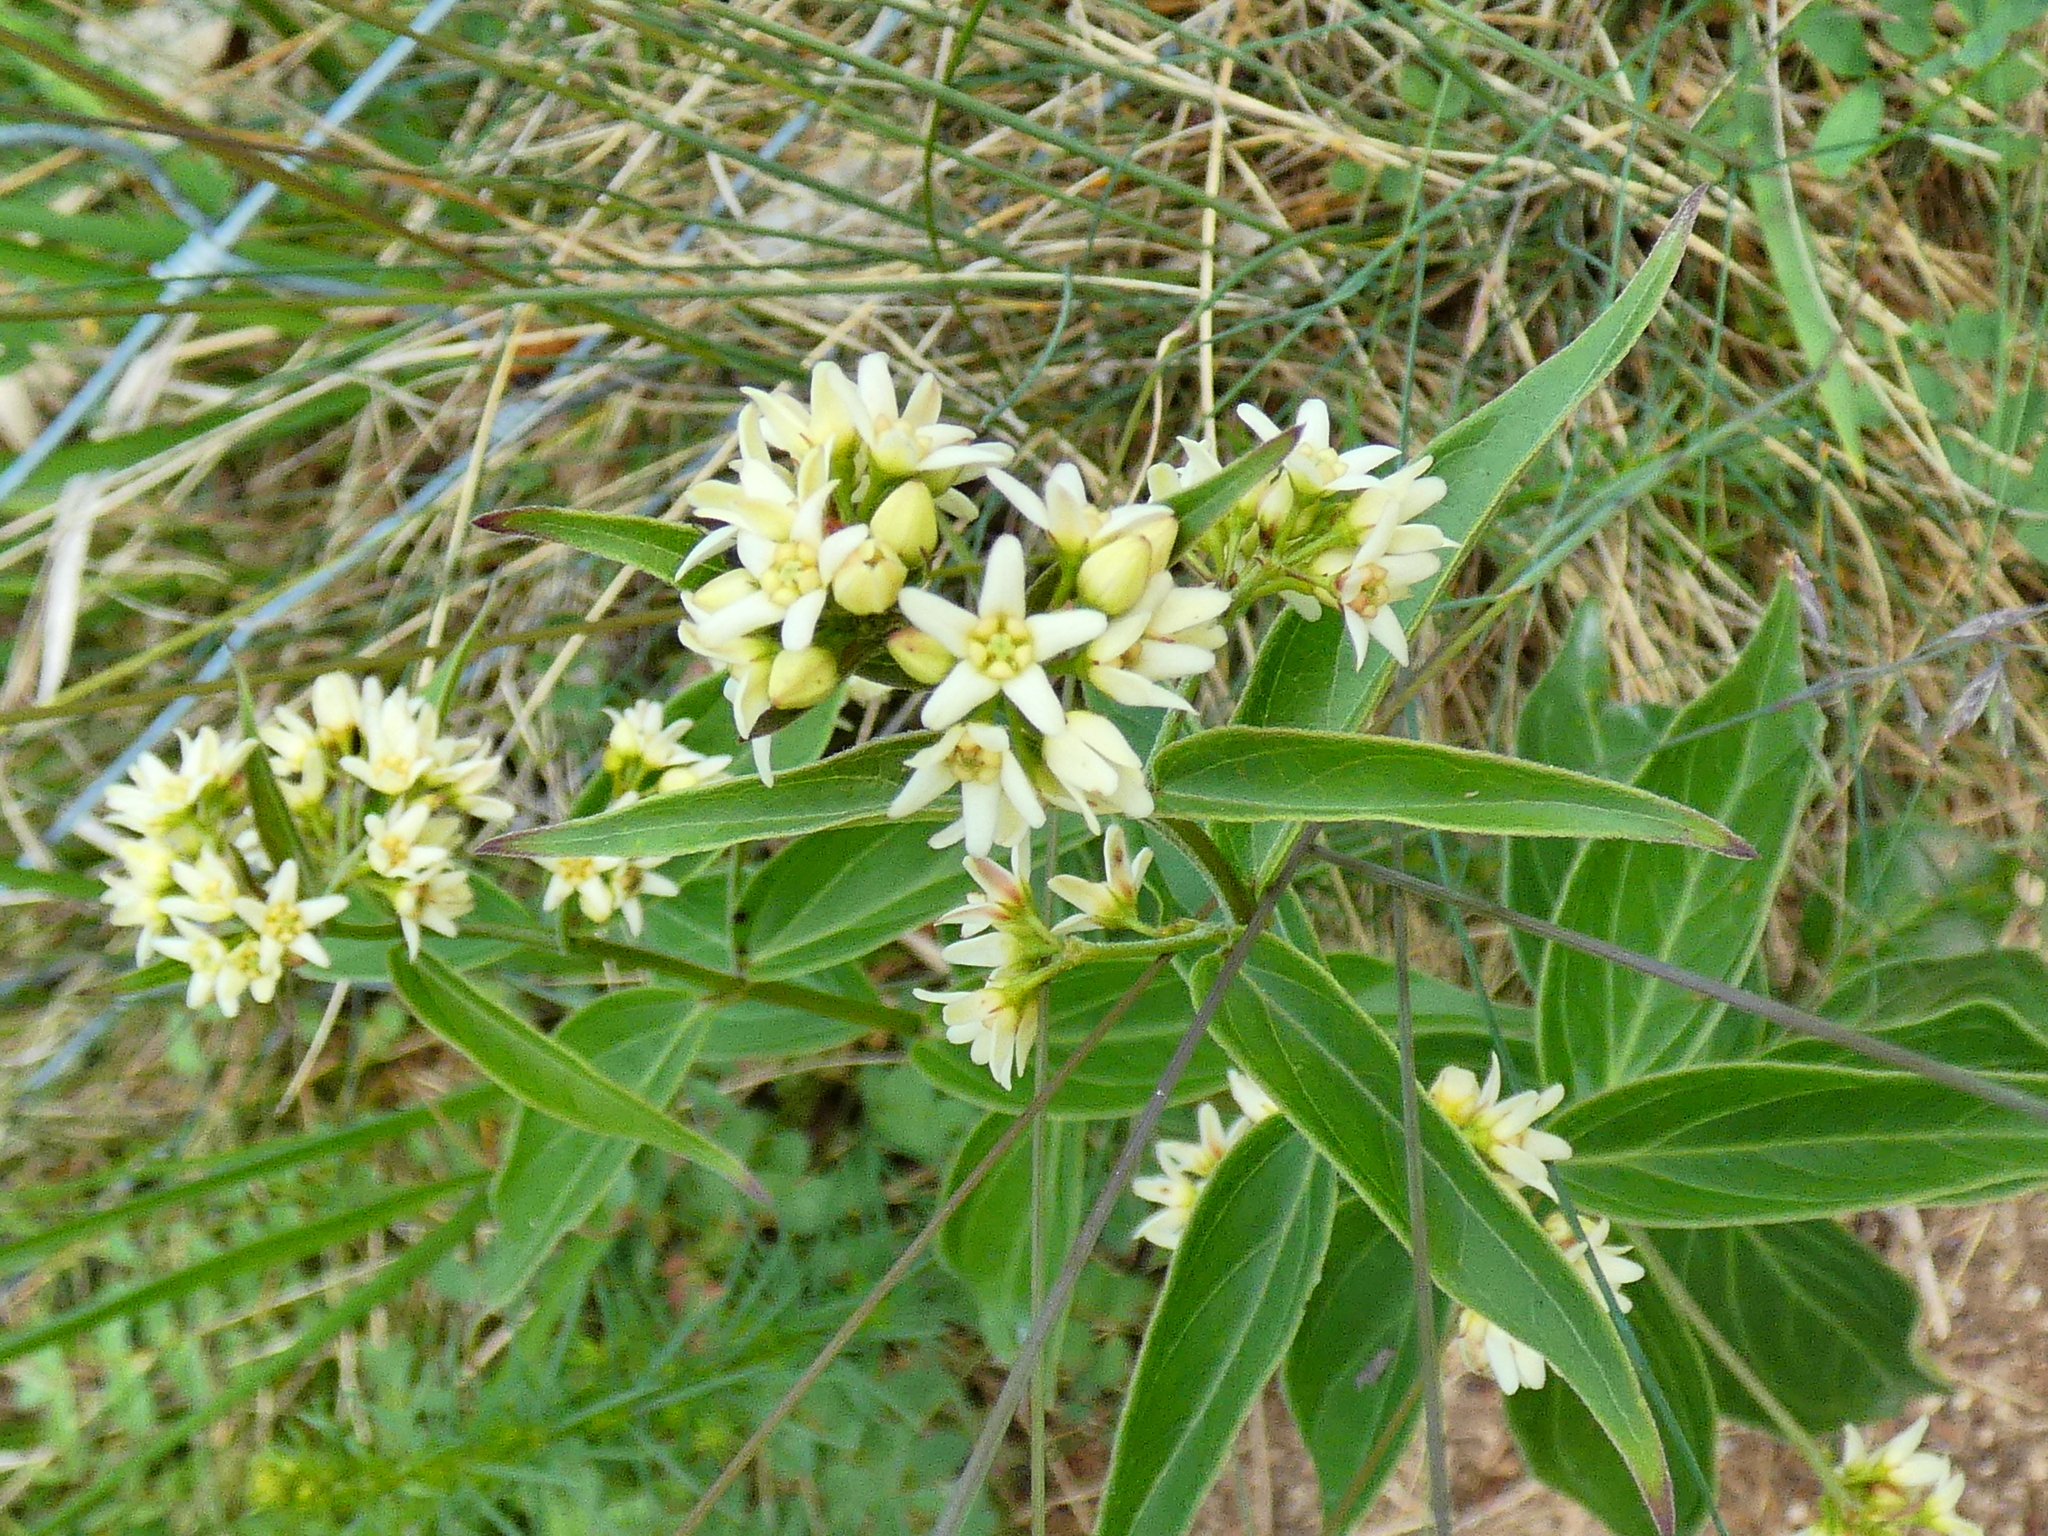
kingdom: Plantae
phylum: Tracheophyta
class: Magnoliopsida
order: Gentianales
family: Apocynaceae
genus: Vincetoxicum
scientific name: Vincetoxicum hirundinaria
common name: White swallowwort
